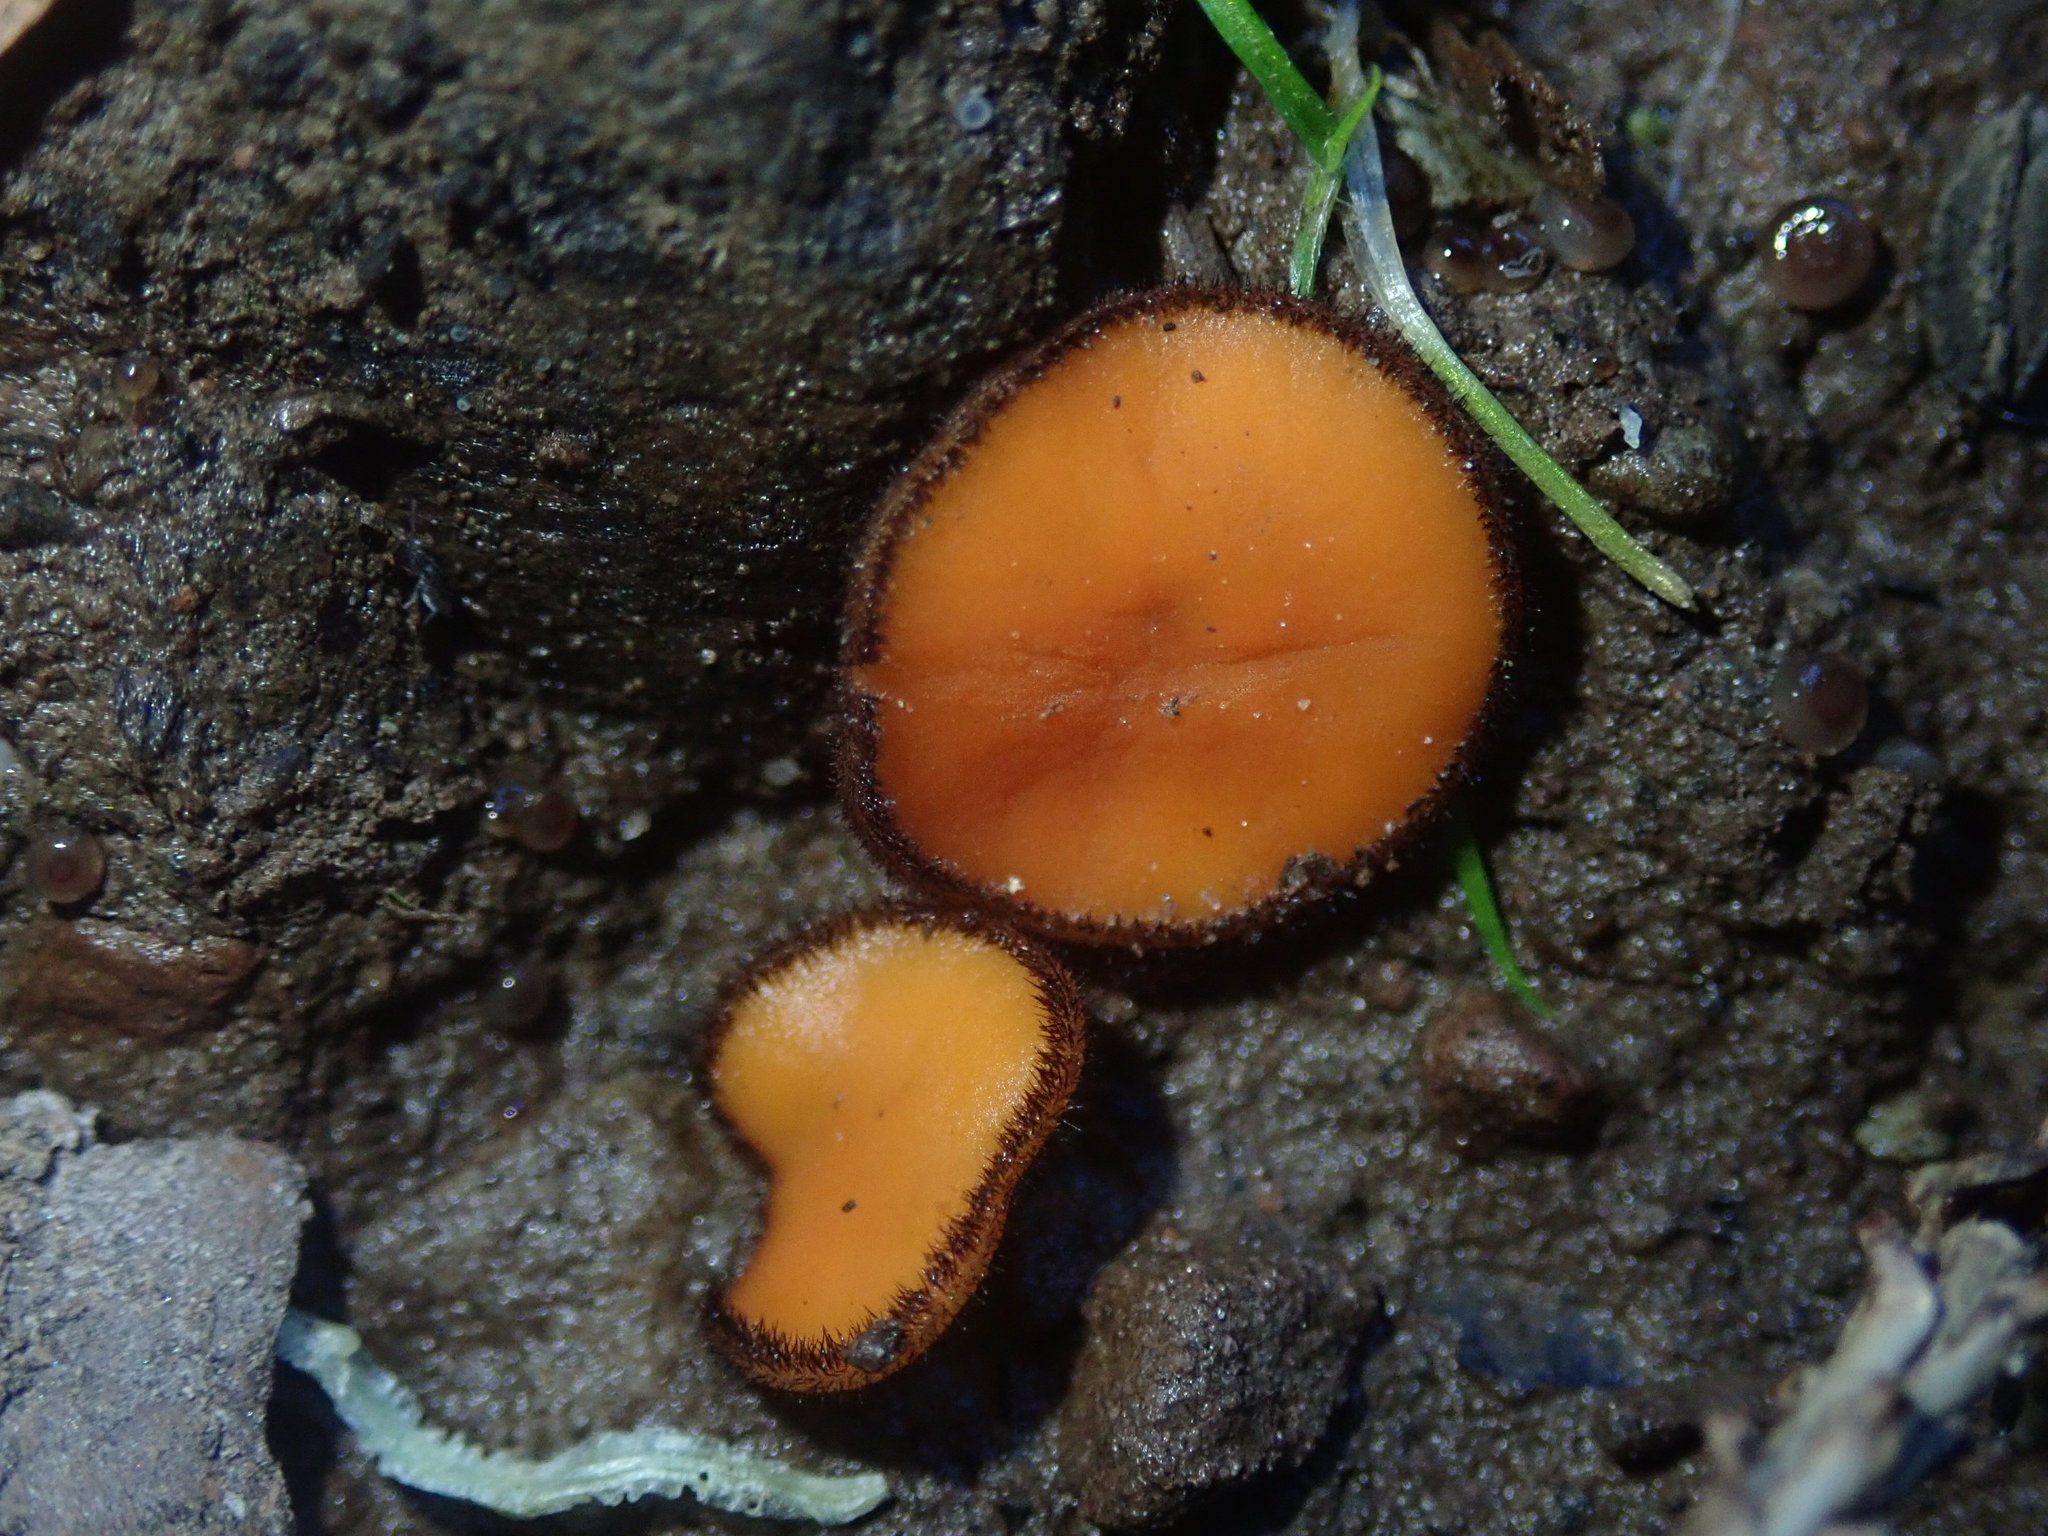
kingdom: Fungi
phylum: Ascomycota
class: Pezizomycetes
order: Pezizales
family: Pyronemataceae
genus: Scutellinia
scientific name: Scutellinia
